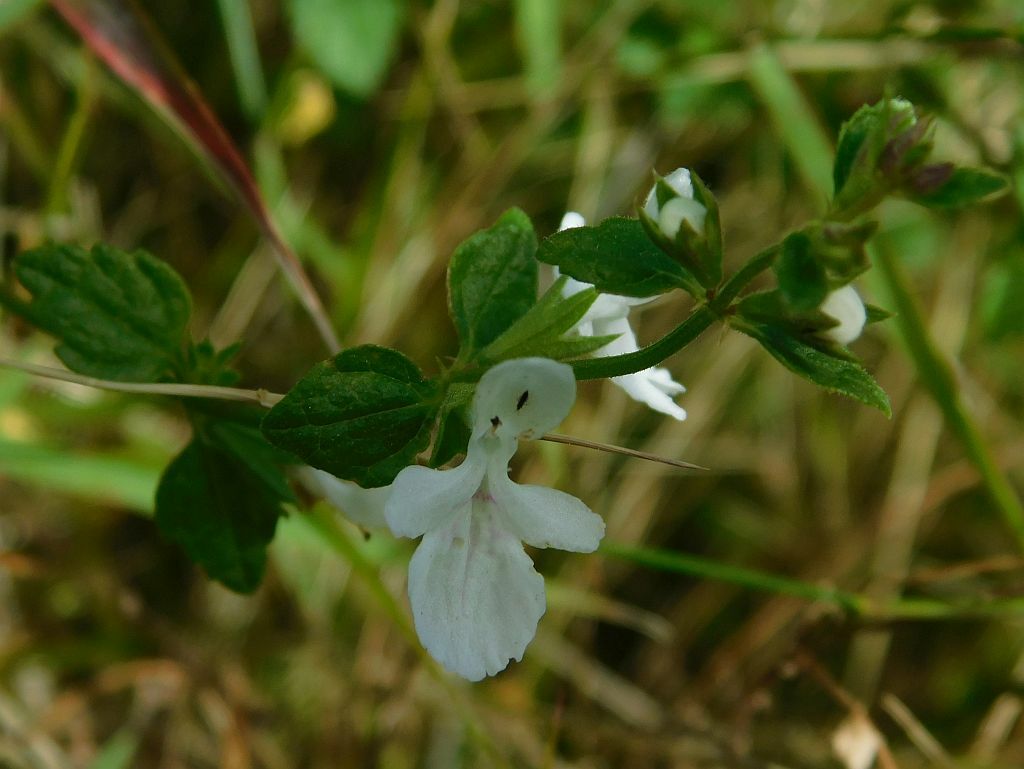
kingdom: Plantae
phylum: Tracheophyta
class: Magnoliopsida
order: Lamiales
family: Lamiaceae
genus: Stachys
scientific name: Stachys aethiopica
